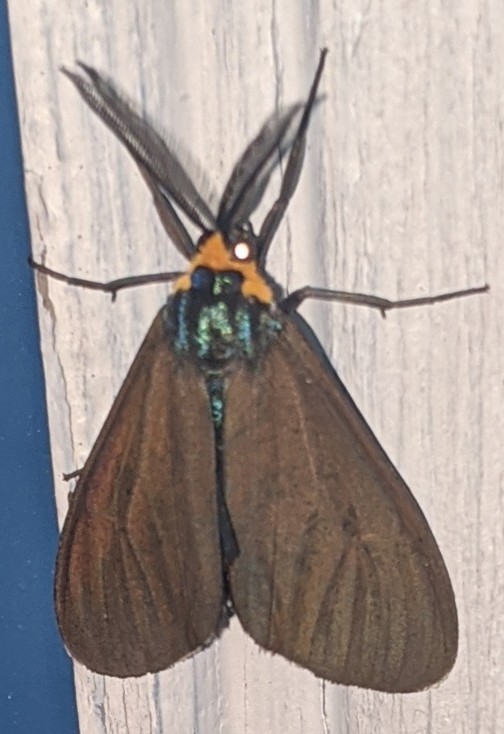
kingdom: Animalia
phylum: Arthropoda
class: Insecta
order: Lepidoptera
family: Erebidae
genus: Ctenucha
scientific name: Ctenucha virginica
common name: Virginia ctenucha moth
